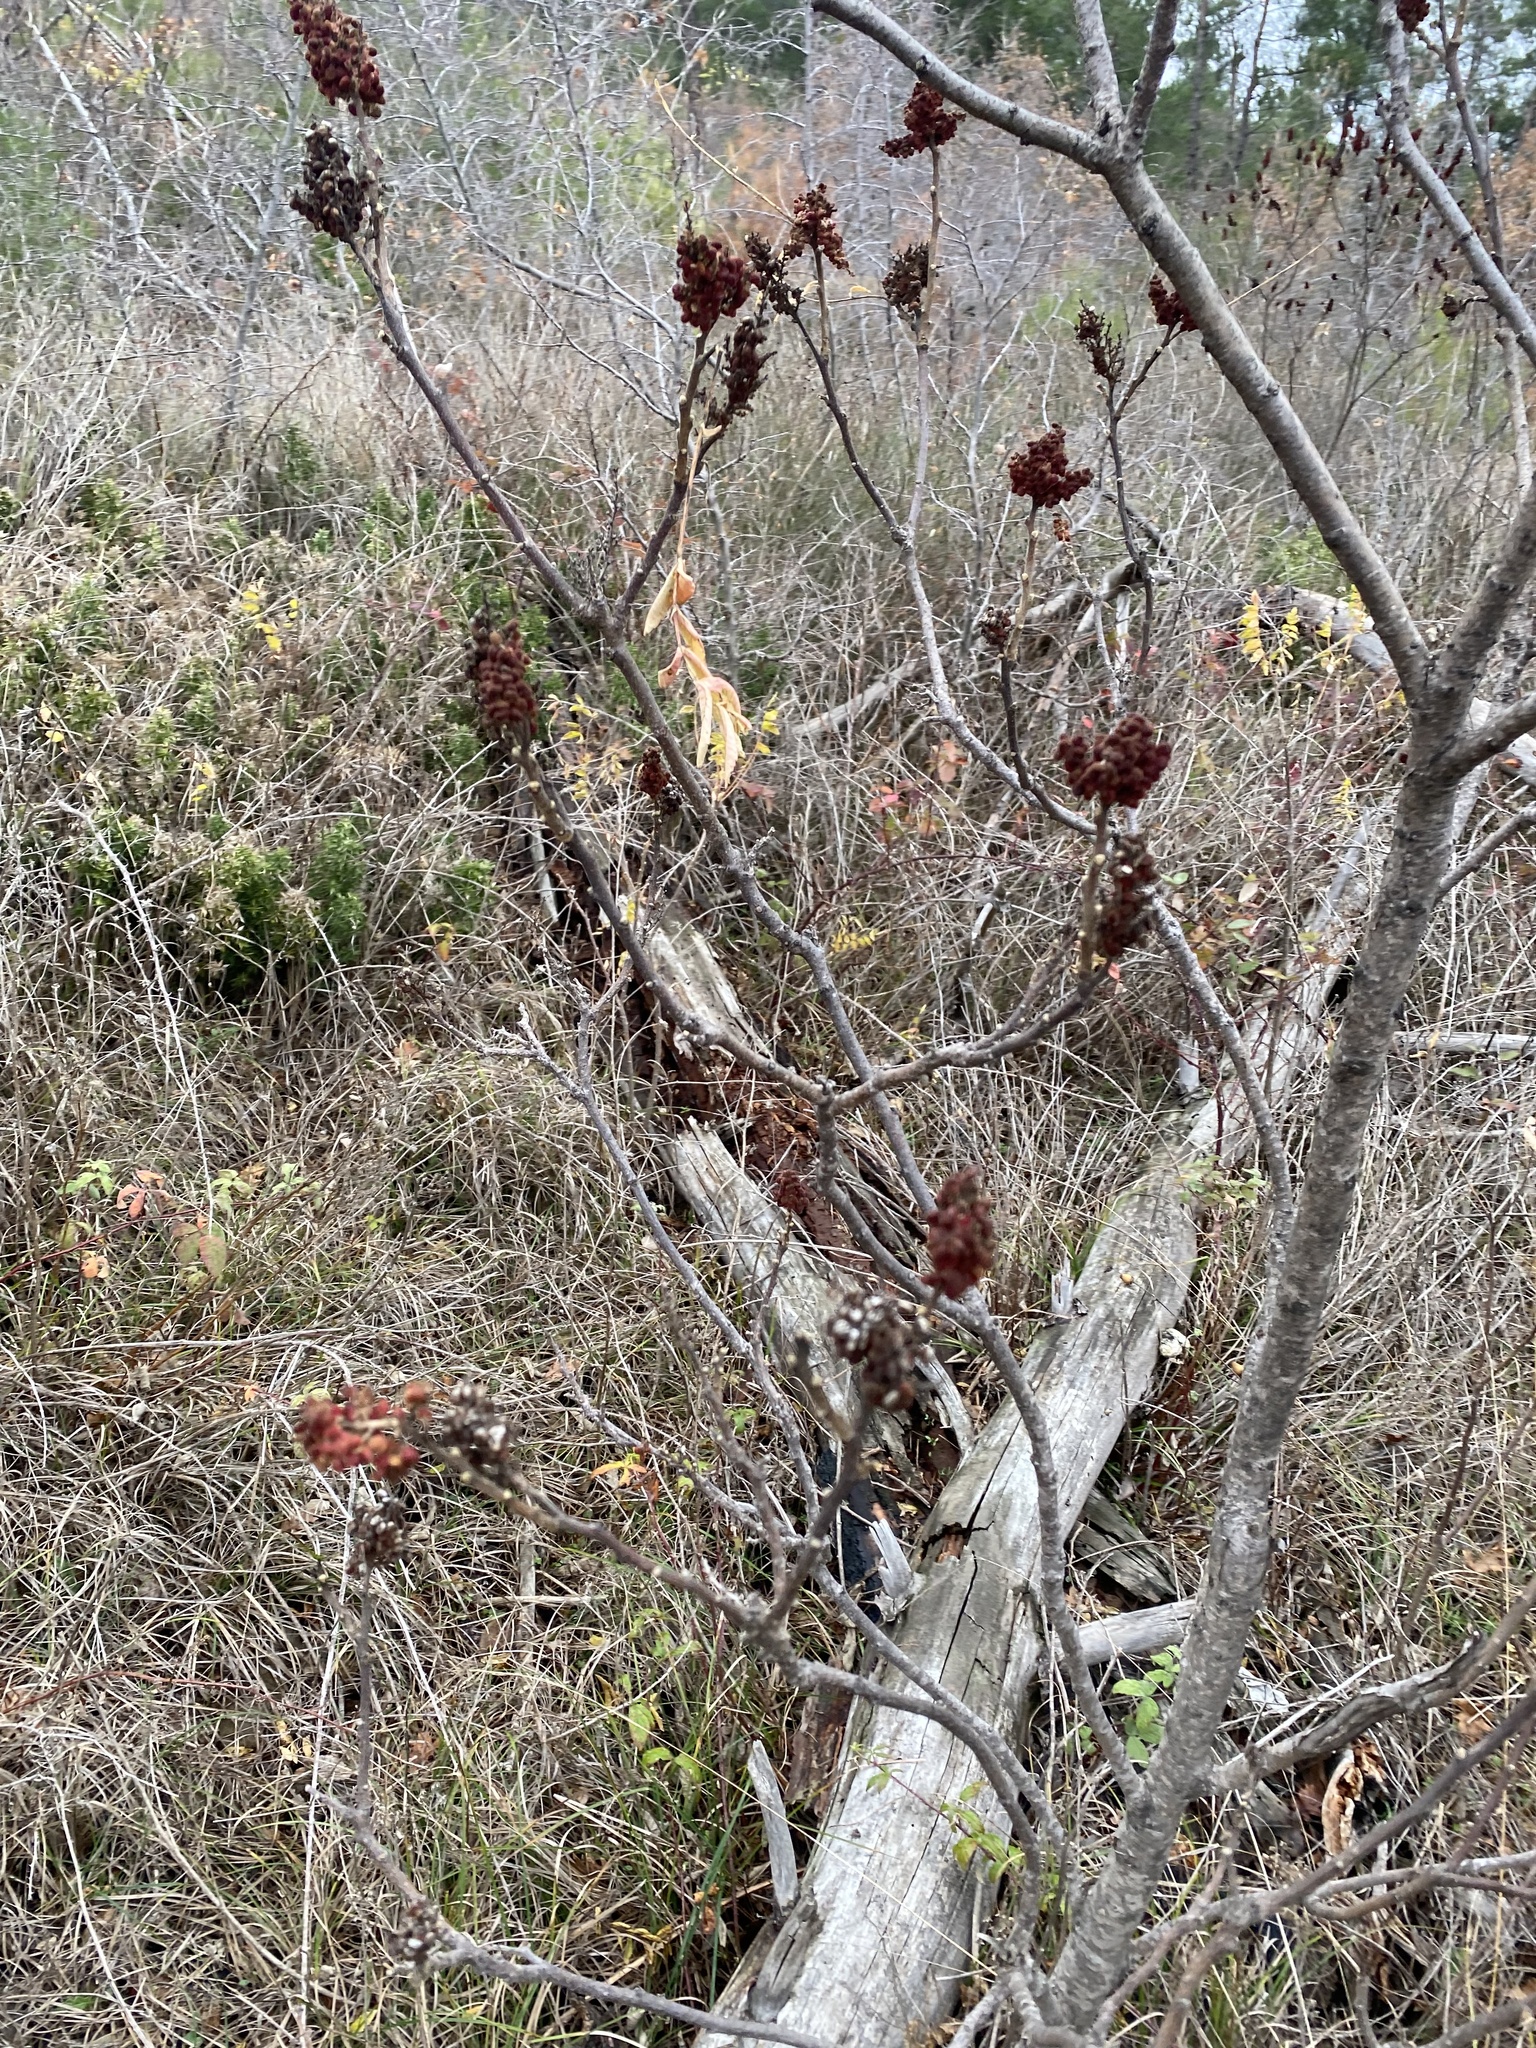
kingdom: Plantae
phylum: Tracheophyta
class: Magnoliopsida
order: Sapindales
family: Anacardiaceae
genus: Rhus
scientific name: Rhus coriaria
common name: Tanner's sumach
